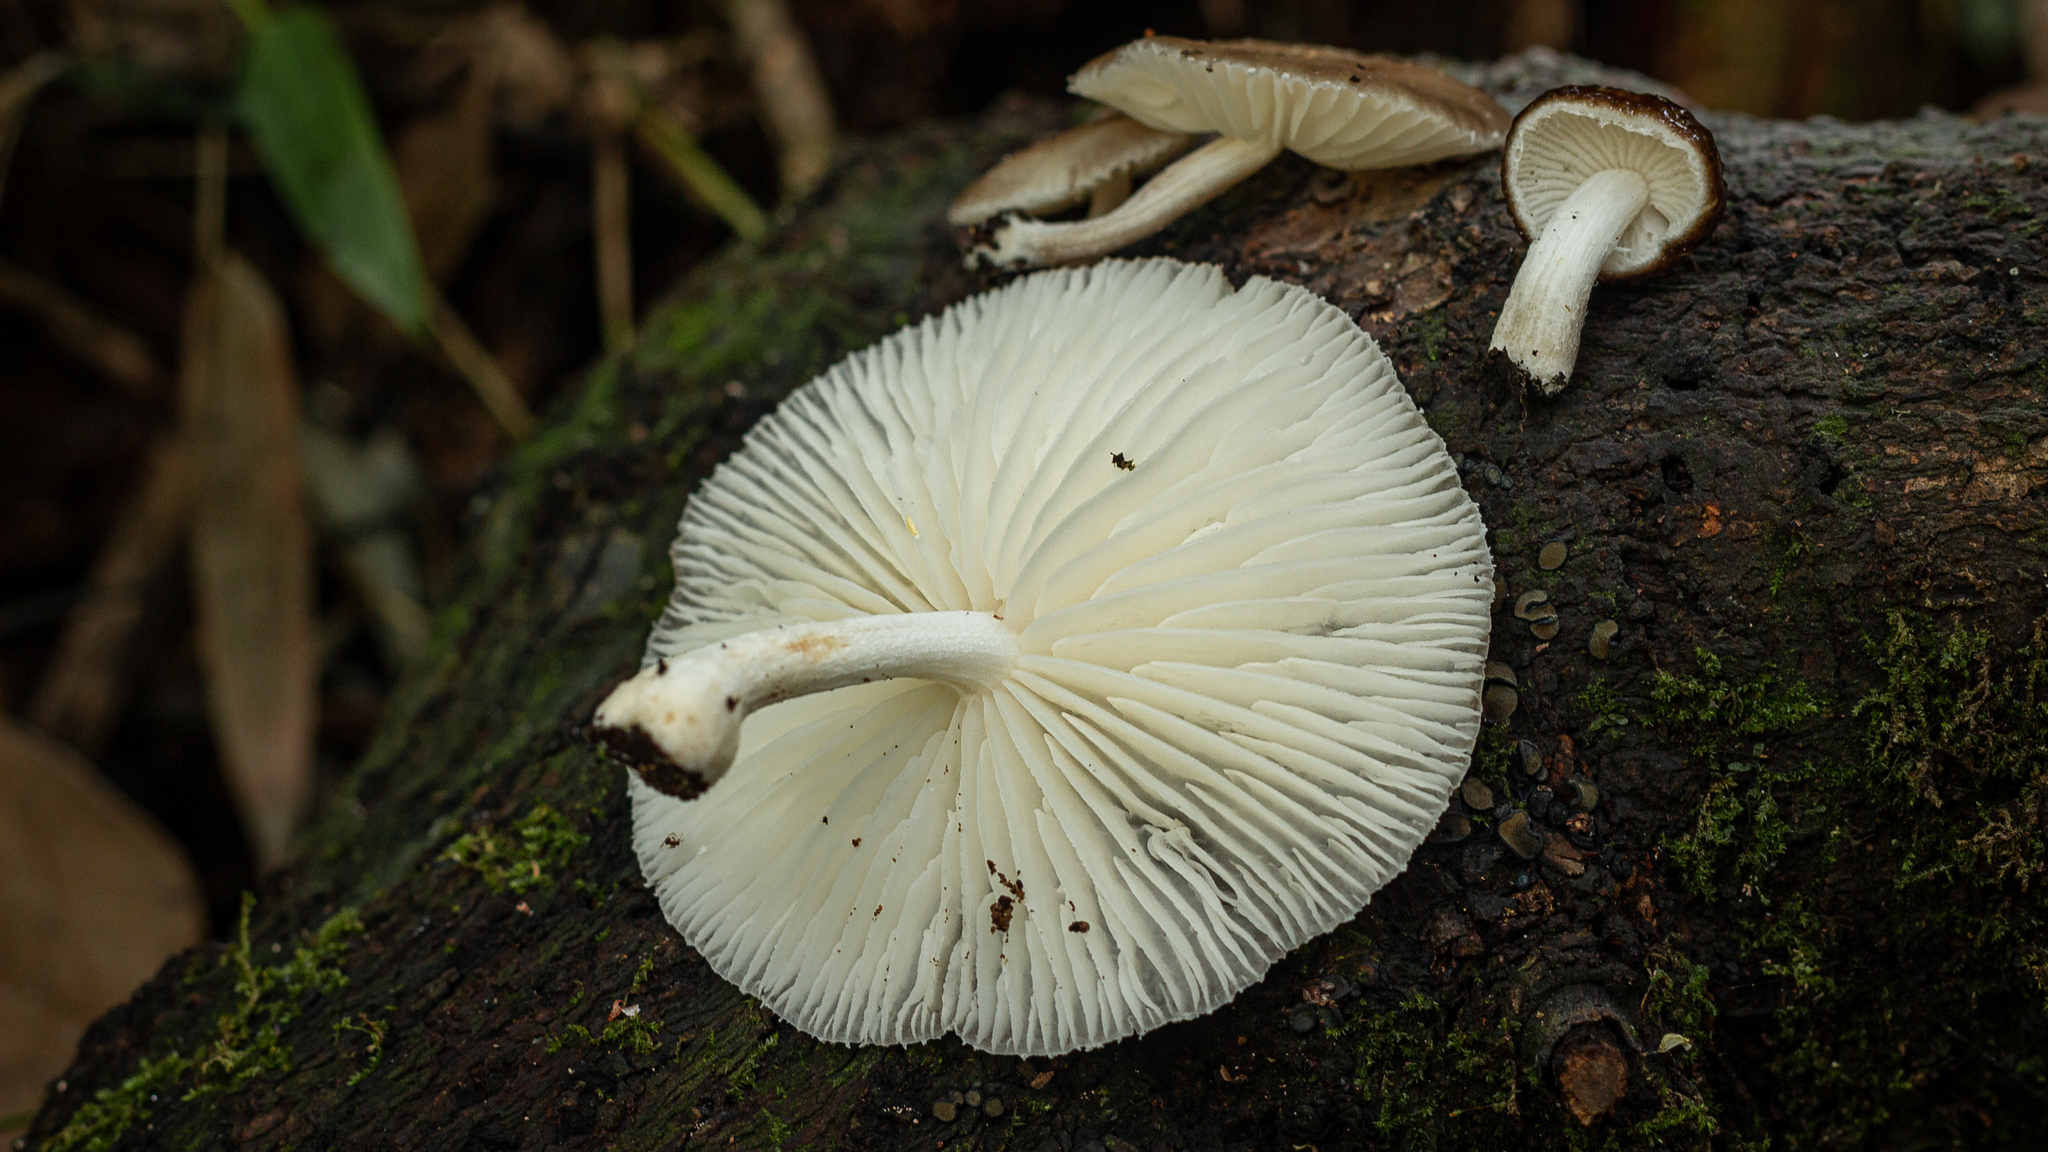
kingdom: Fungi
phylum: Basidiomycota
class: Agaricomycetes
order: Agaricales
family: Physalacriaceae
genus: Oudemansiella
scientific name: Oudemansiella cubensis
